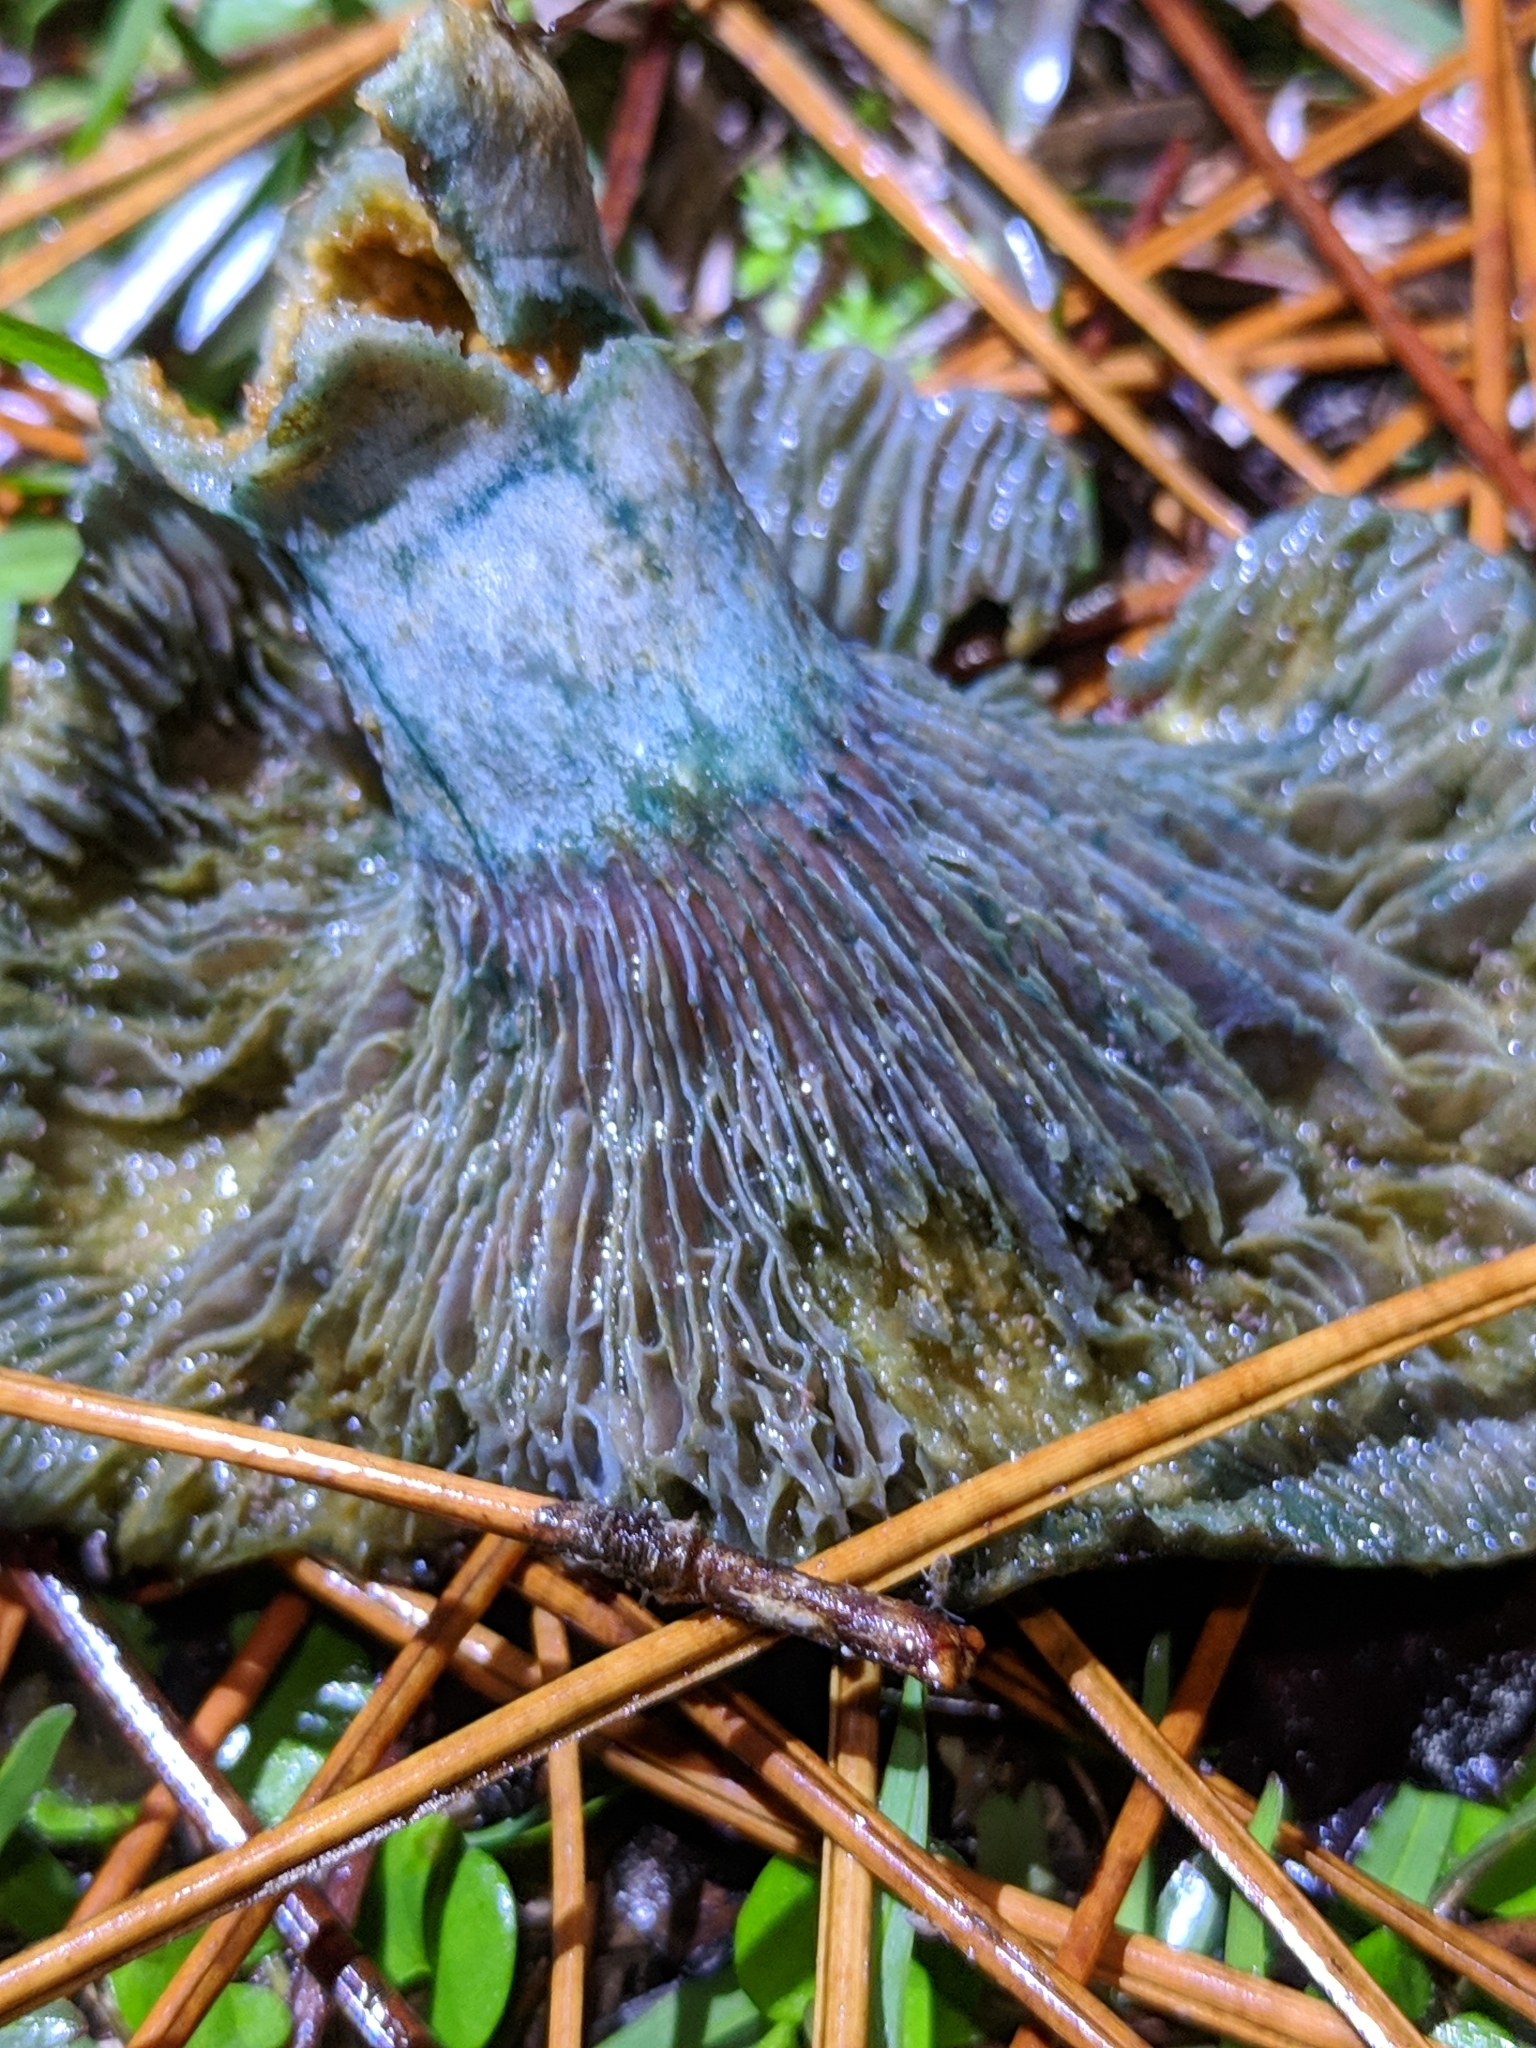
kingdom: Fungi
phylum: Basidiomycota
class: Agaricomycetes
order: Russulales
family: Russulaceae
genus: Lactarius
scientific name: Lactarius indigo
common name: Indigo milk cap
